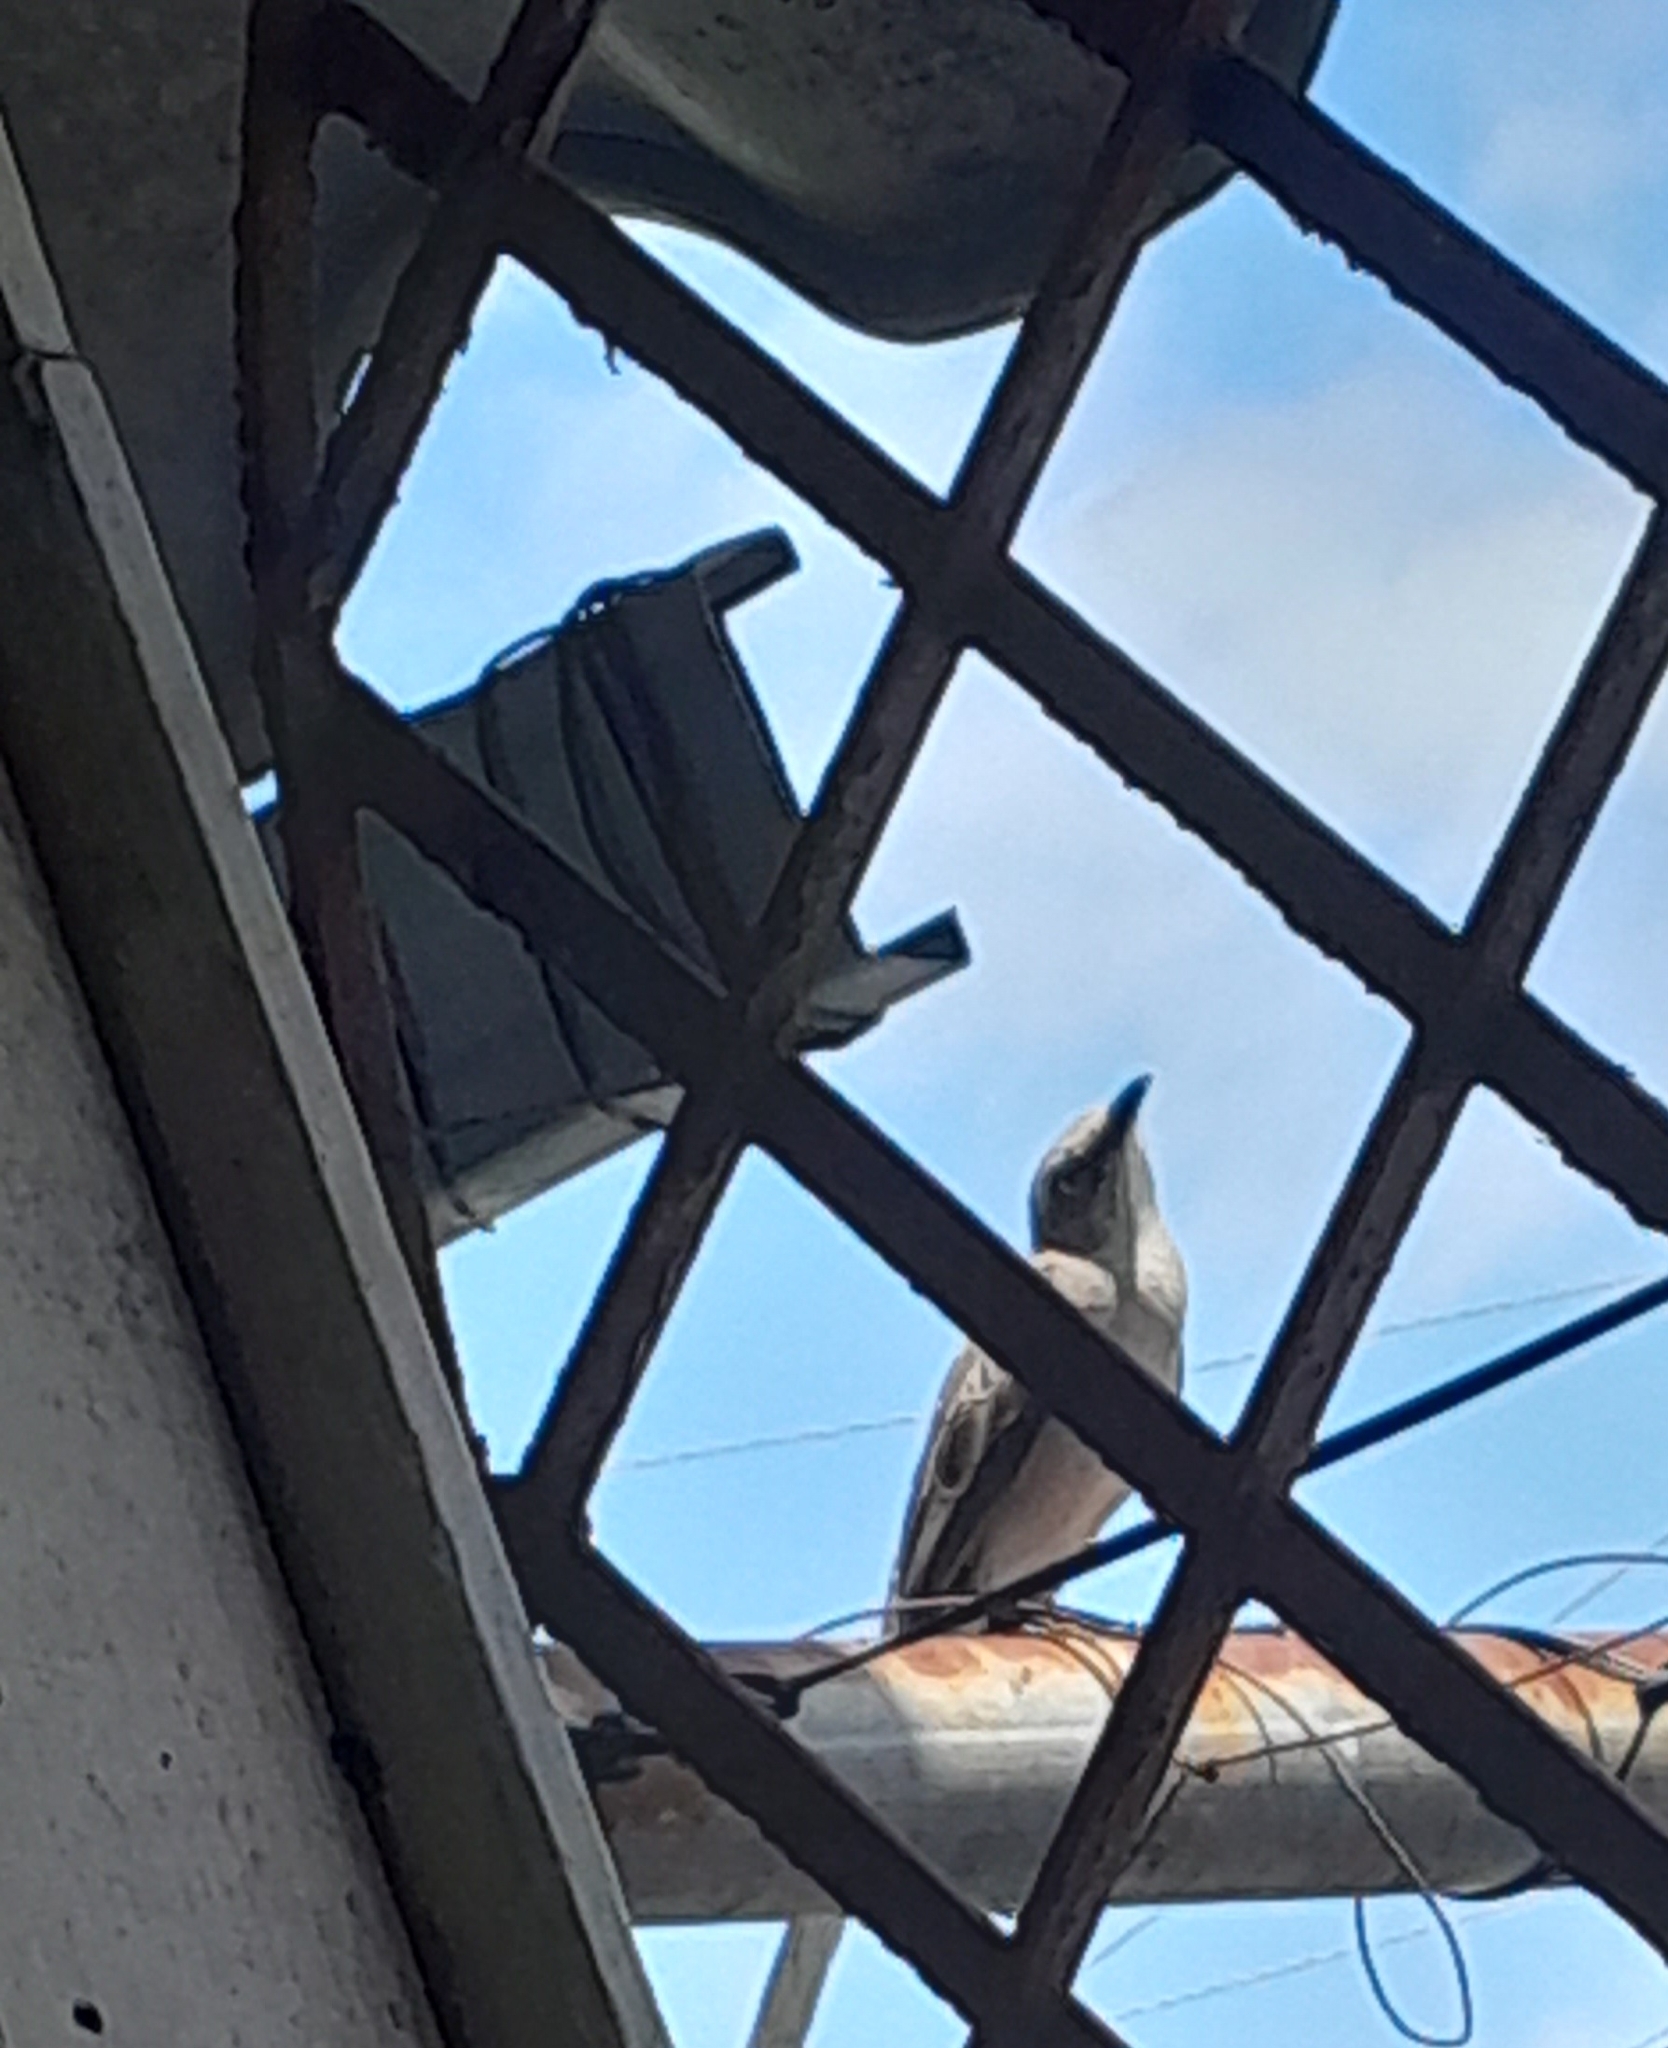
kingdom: Animalia
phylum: Chordata
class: Aves
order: Passeriformes
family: Mimidae
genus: Mimus
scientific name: Mimus gilvus
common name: Tropical mockingbird
